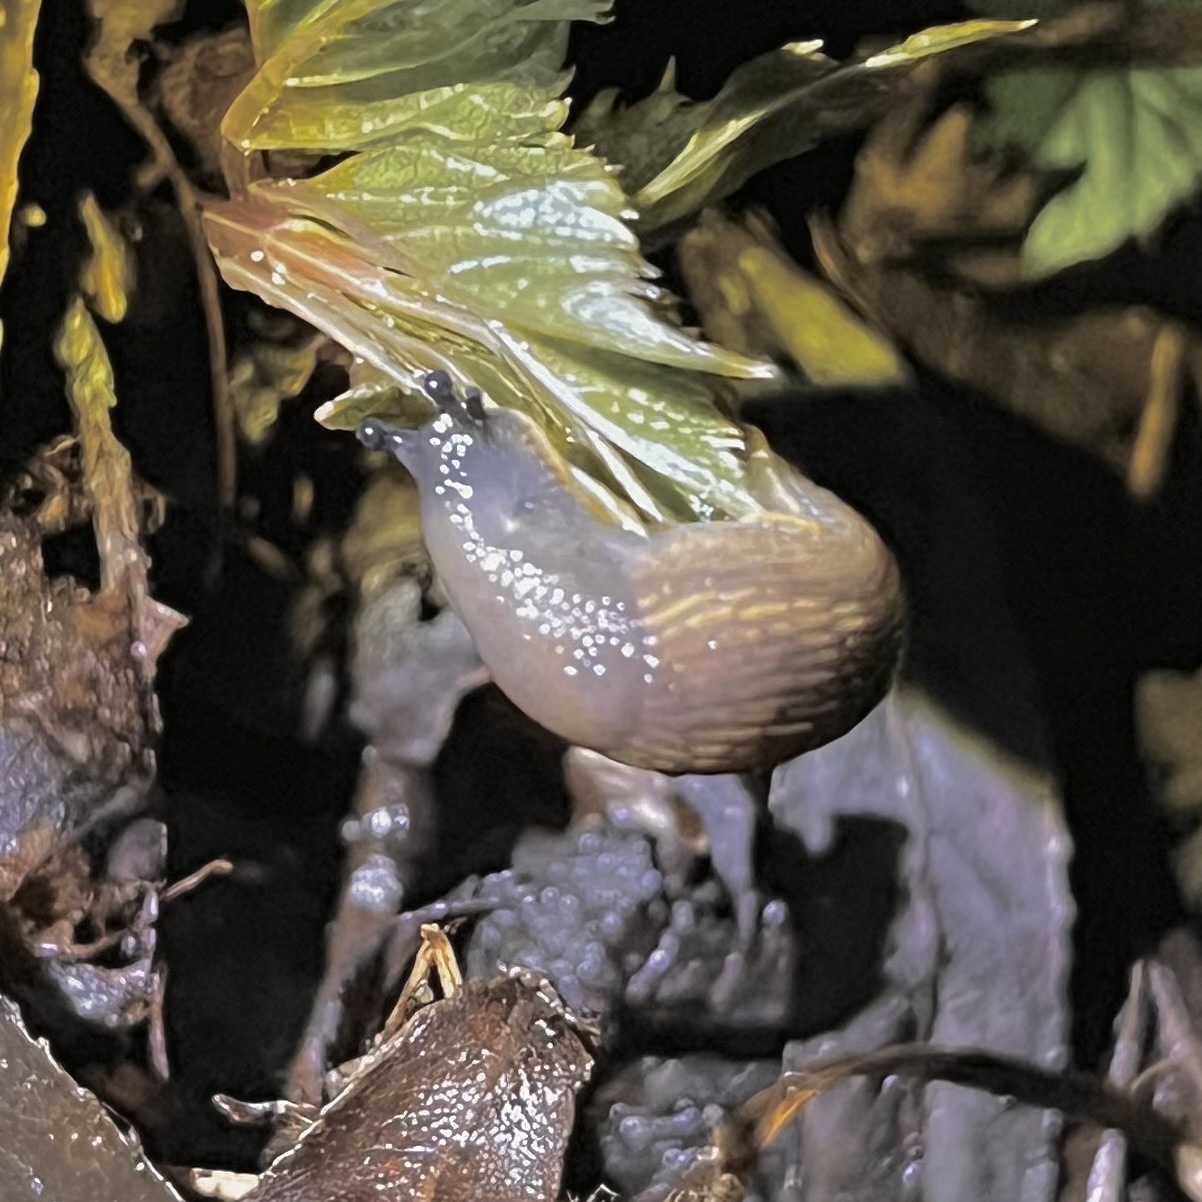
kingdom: Animalia
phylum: Mollusca
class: Gastropoda
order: Stylommatophora
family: Arionidae
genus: Arion
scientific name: Arion vulgaris
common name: Lusitanian slug
